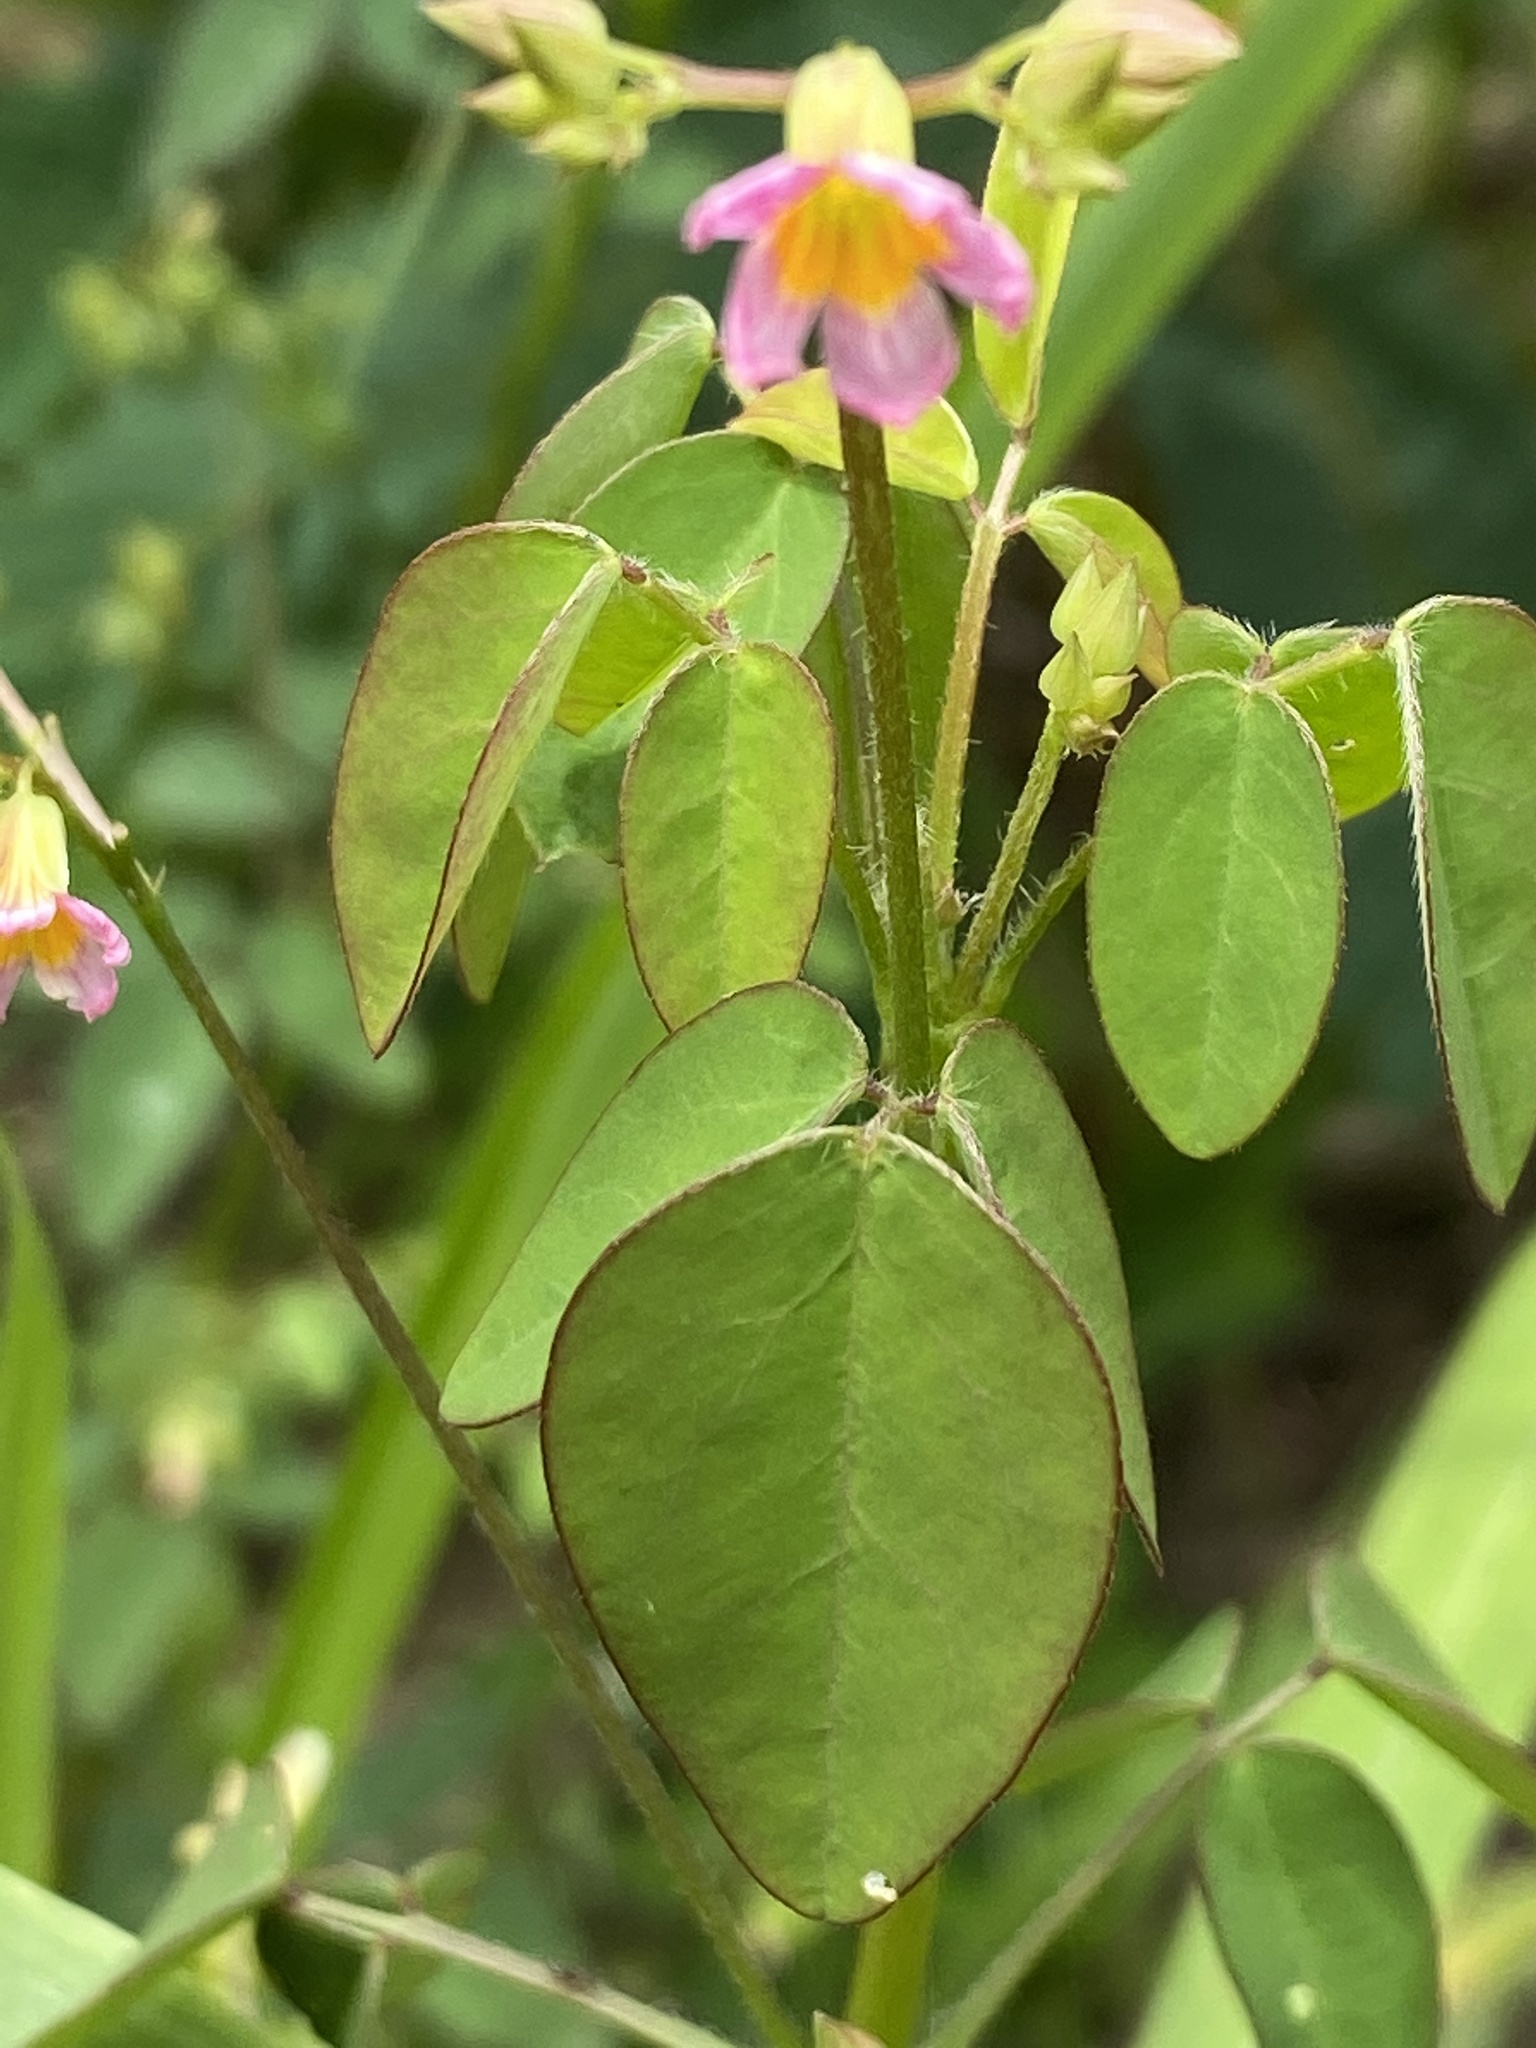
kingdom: Plantae
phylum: Tracheophyta
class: Magnoliopsida
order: Oxalidales
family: Oxalidaceae
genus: Oxalis
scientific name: Oxalis barrelieri
